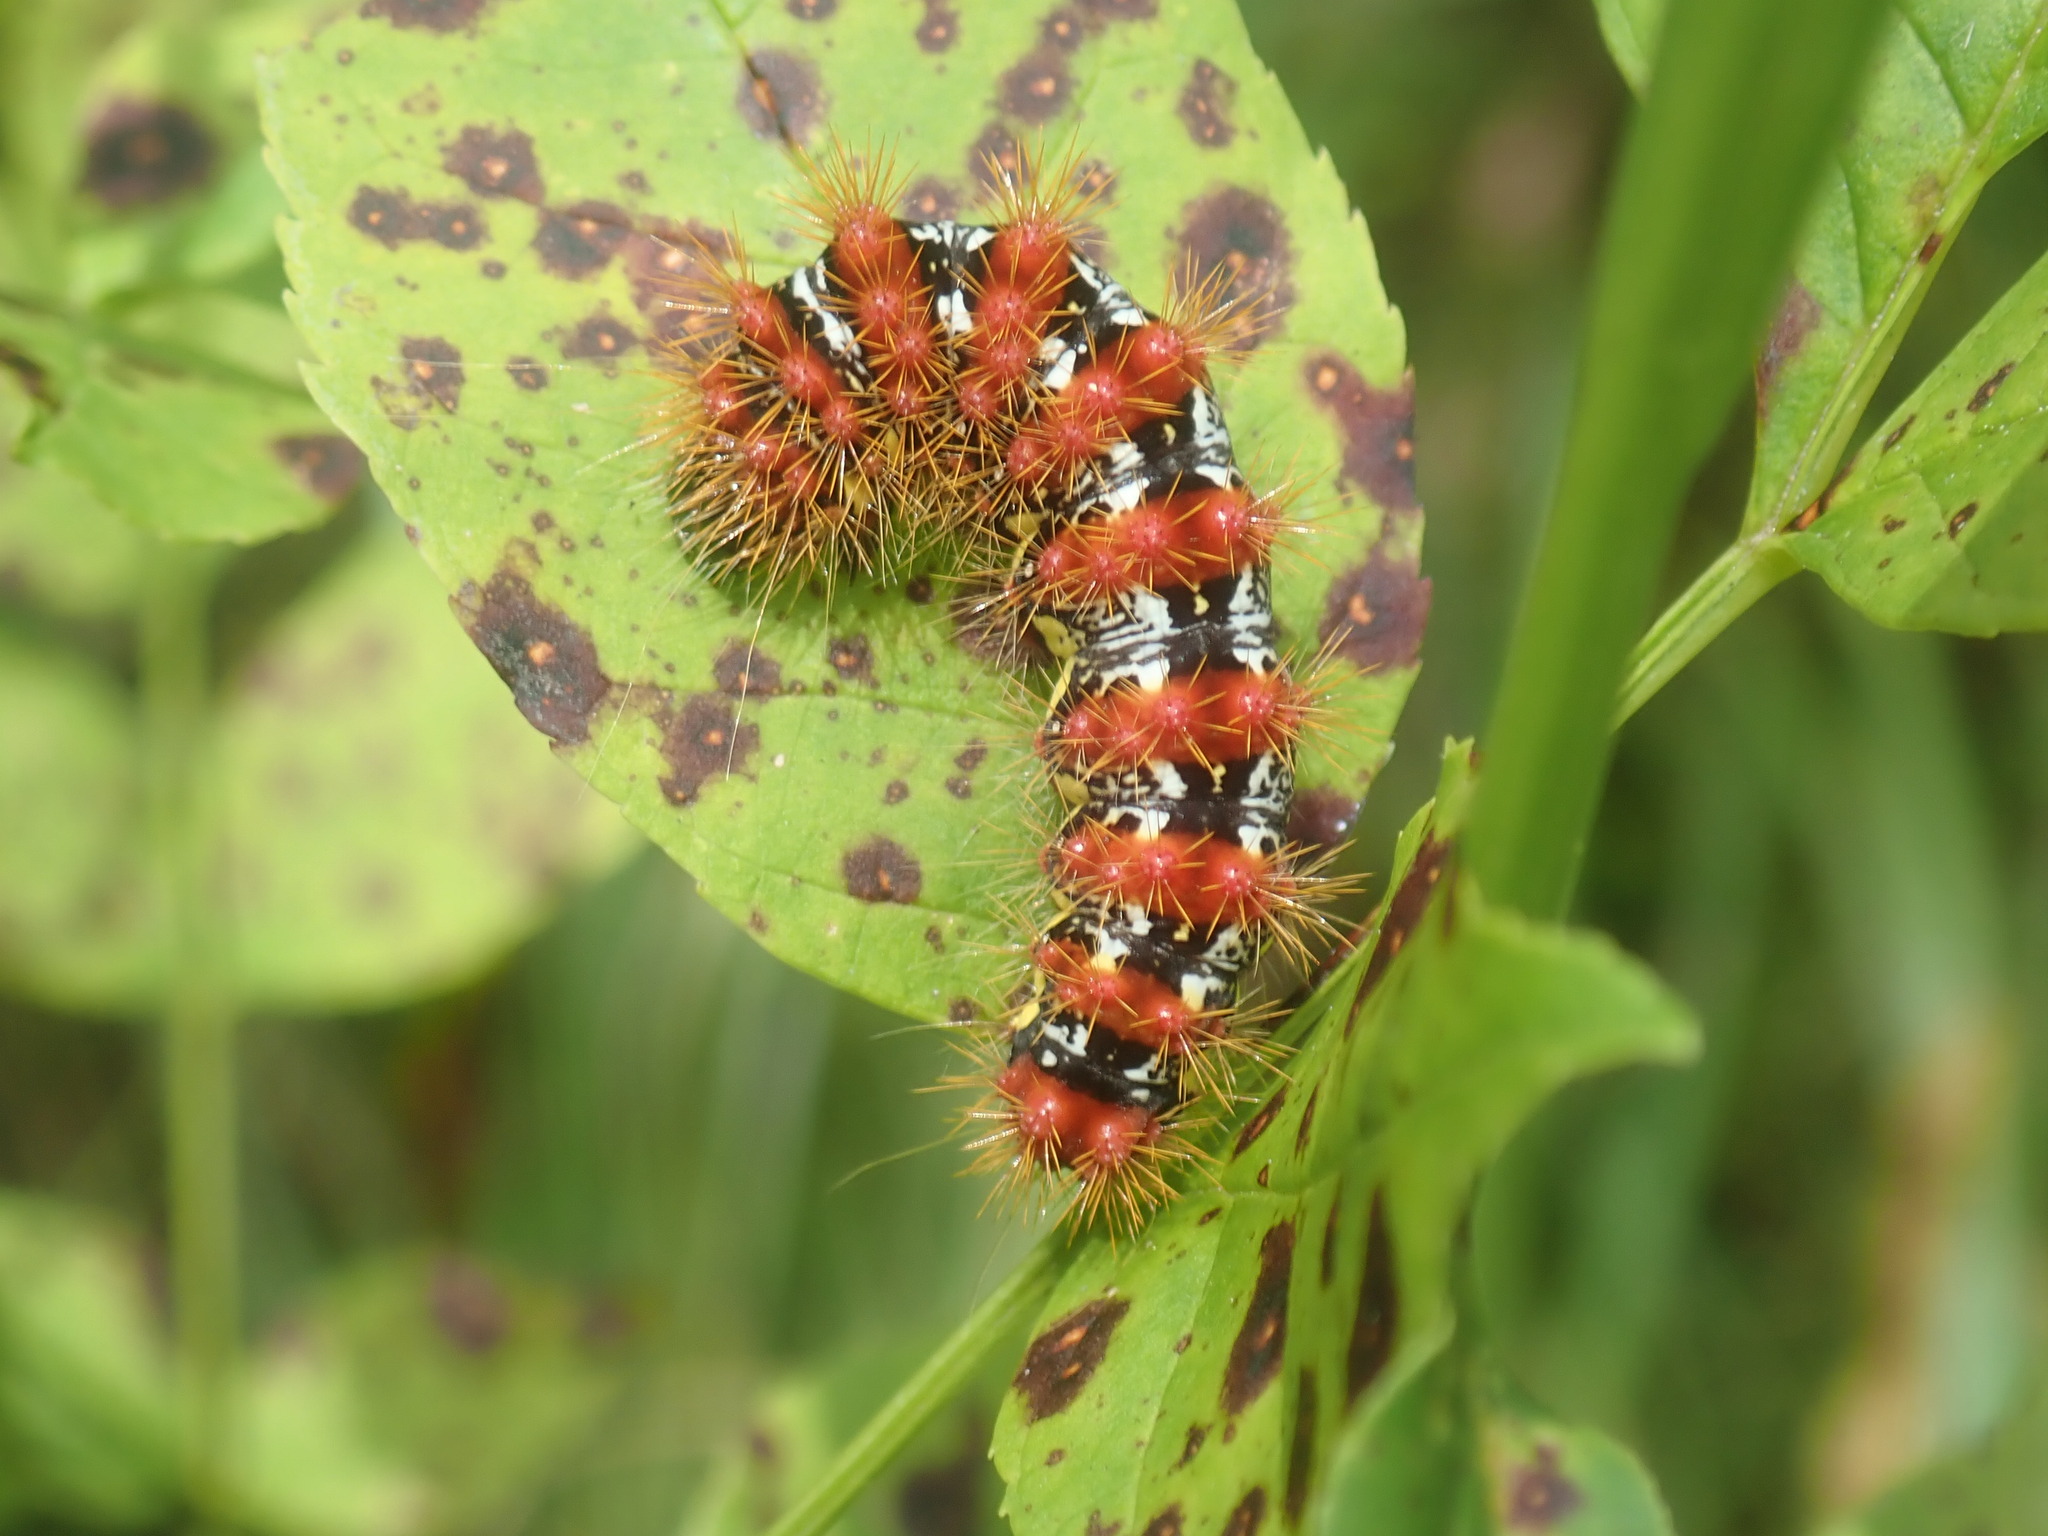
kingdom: Animalia
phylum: Arthropoda
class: Insecta
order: Lepidoptera
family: Noctuidae
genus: Acronicta
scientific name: Acronicta oblinita
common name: Smeared dagger
